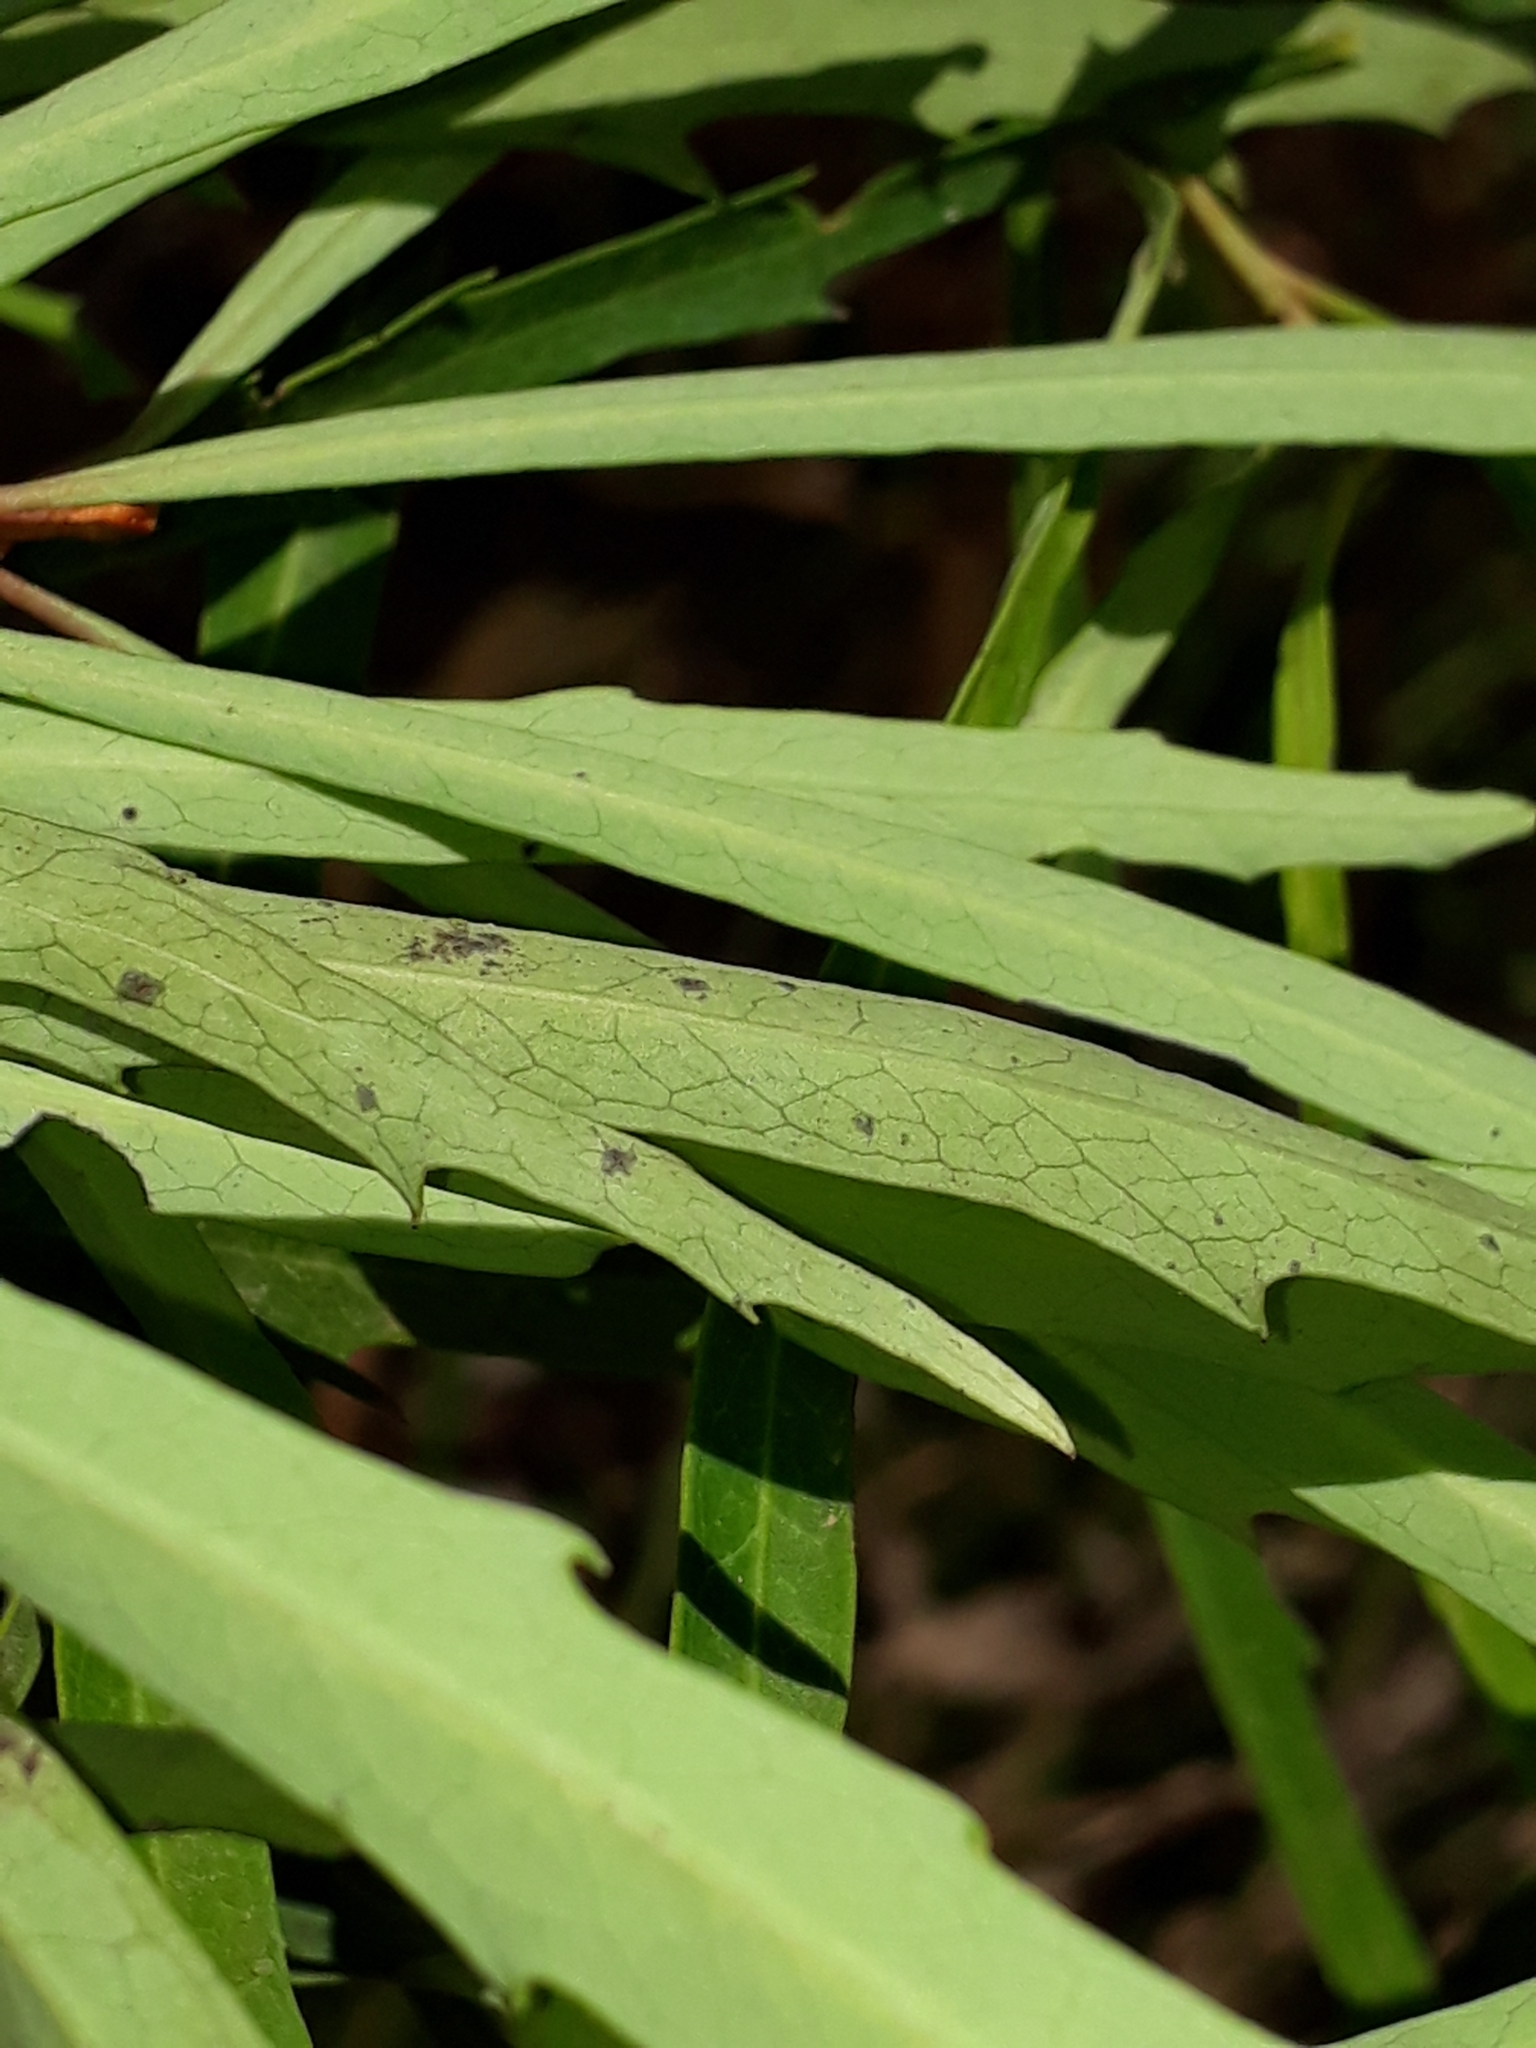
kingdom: Plantae
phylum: Tracheophyta
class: Magnoliopsida
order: Proteales
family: Proteaceae
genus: Lomatia
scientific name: Lomatia myricoides
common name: Longleaf lomatia
